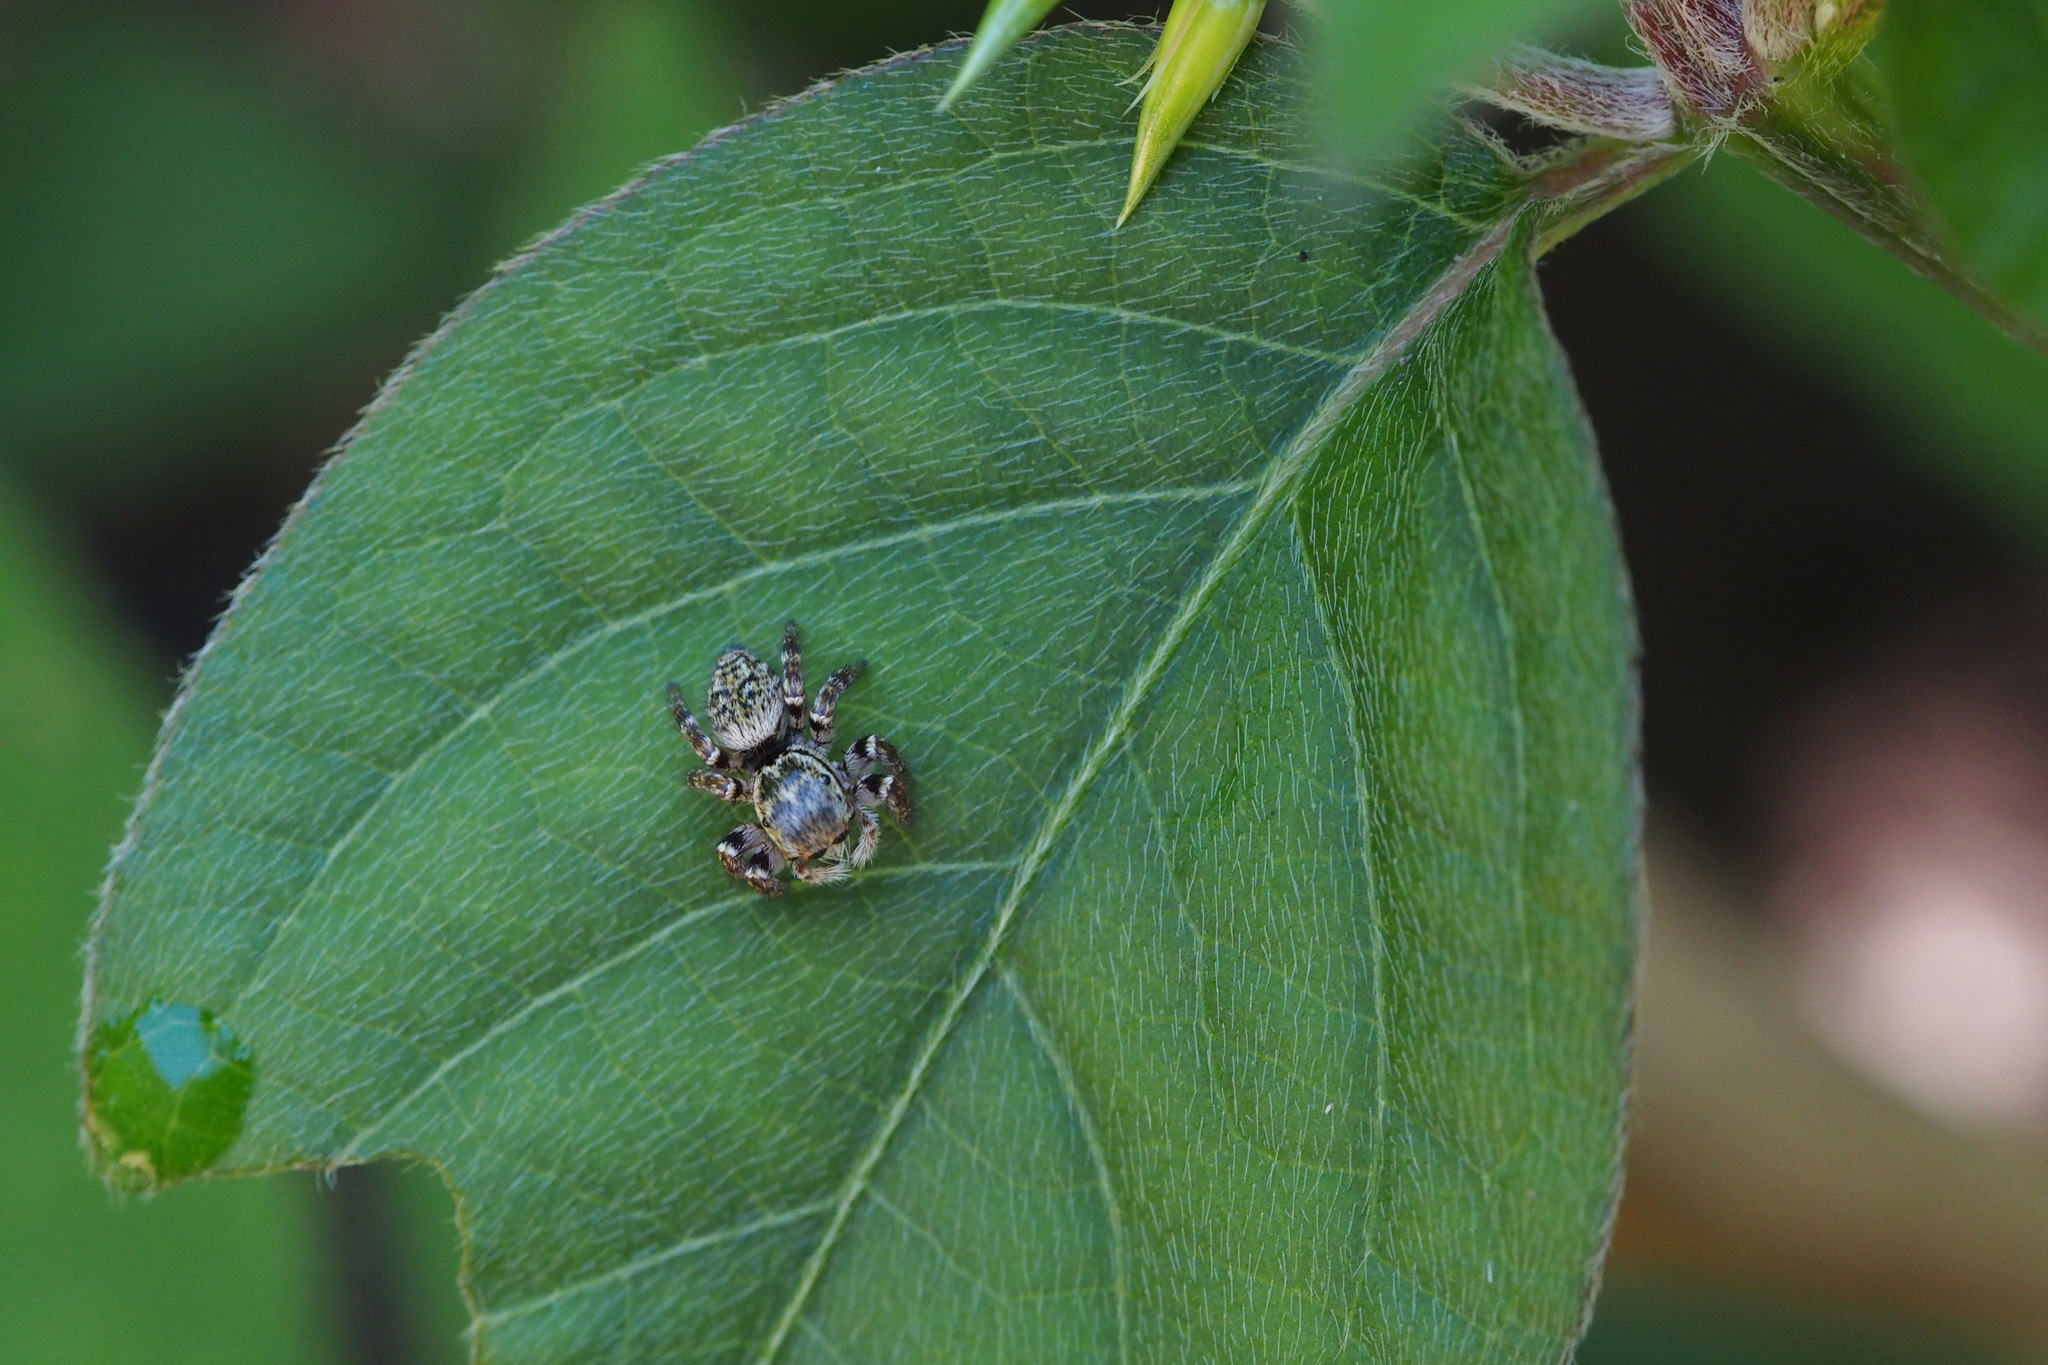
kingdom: Animalia
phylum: Arthropoda
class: Arachnida
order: Araneae
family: Salticidae
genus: Carrhotus
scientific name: Carrhotus xanthogramma
